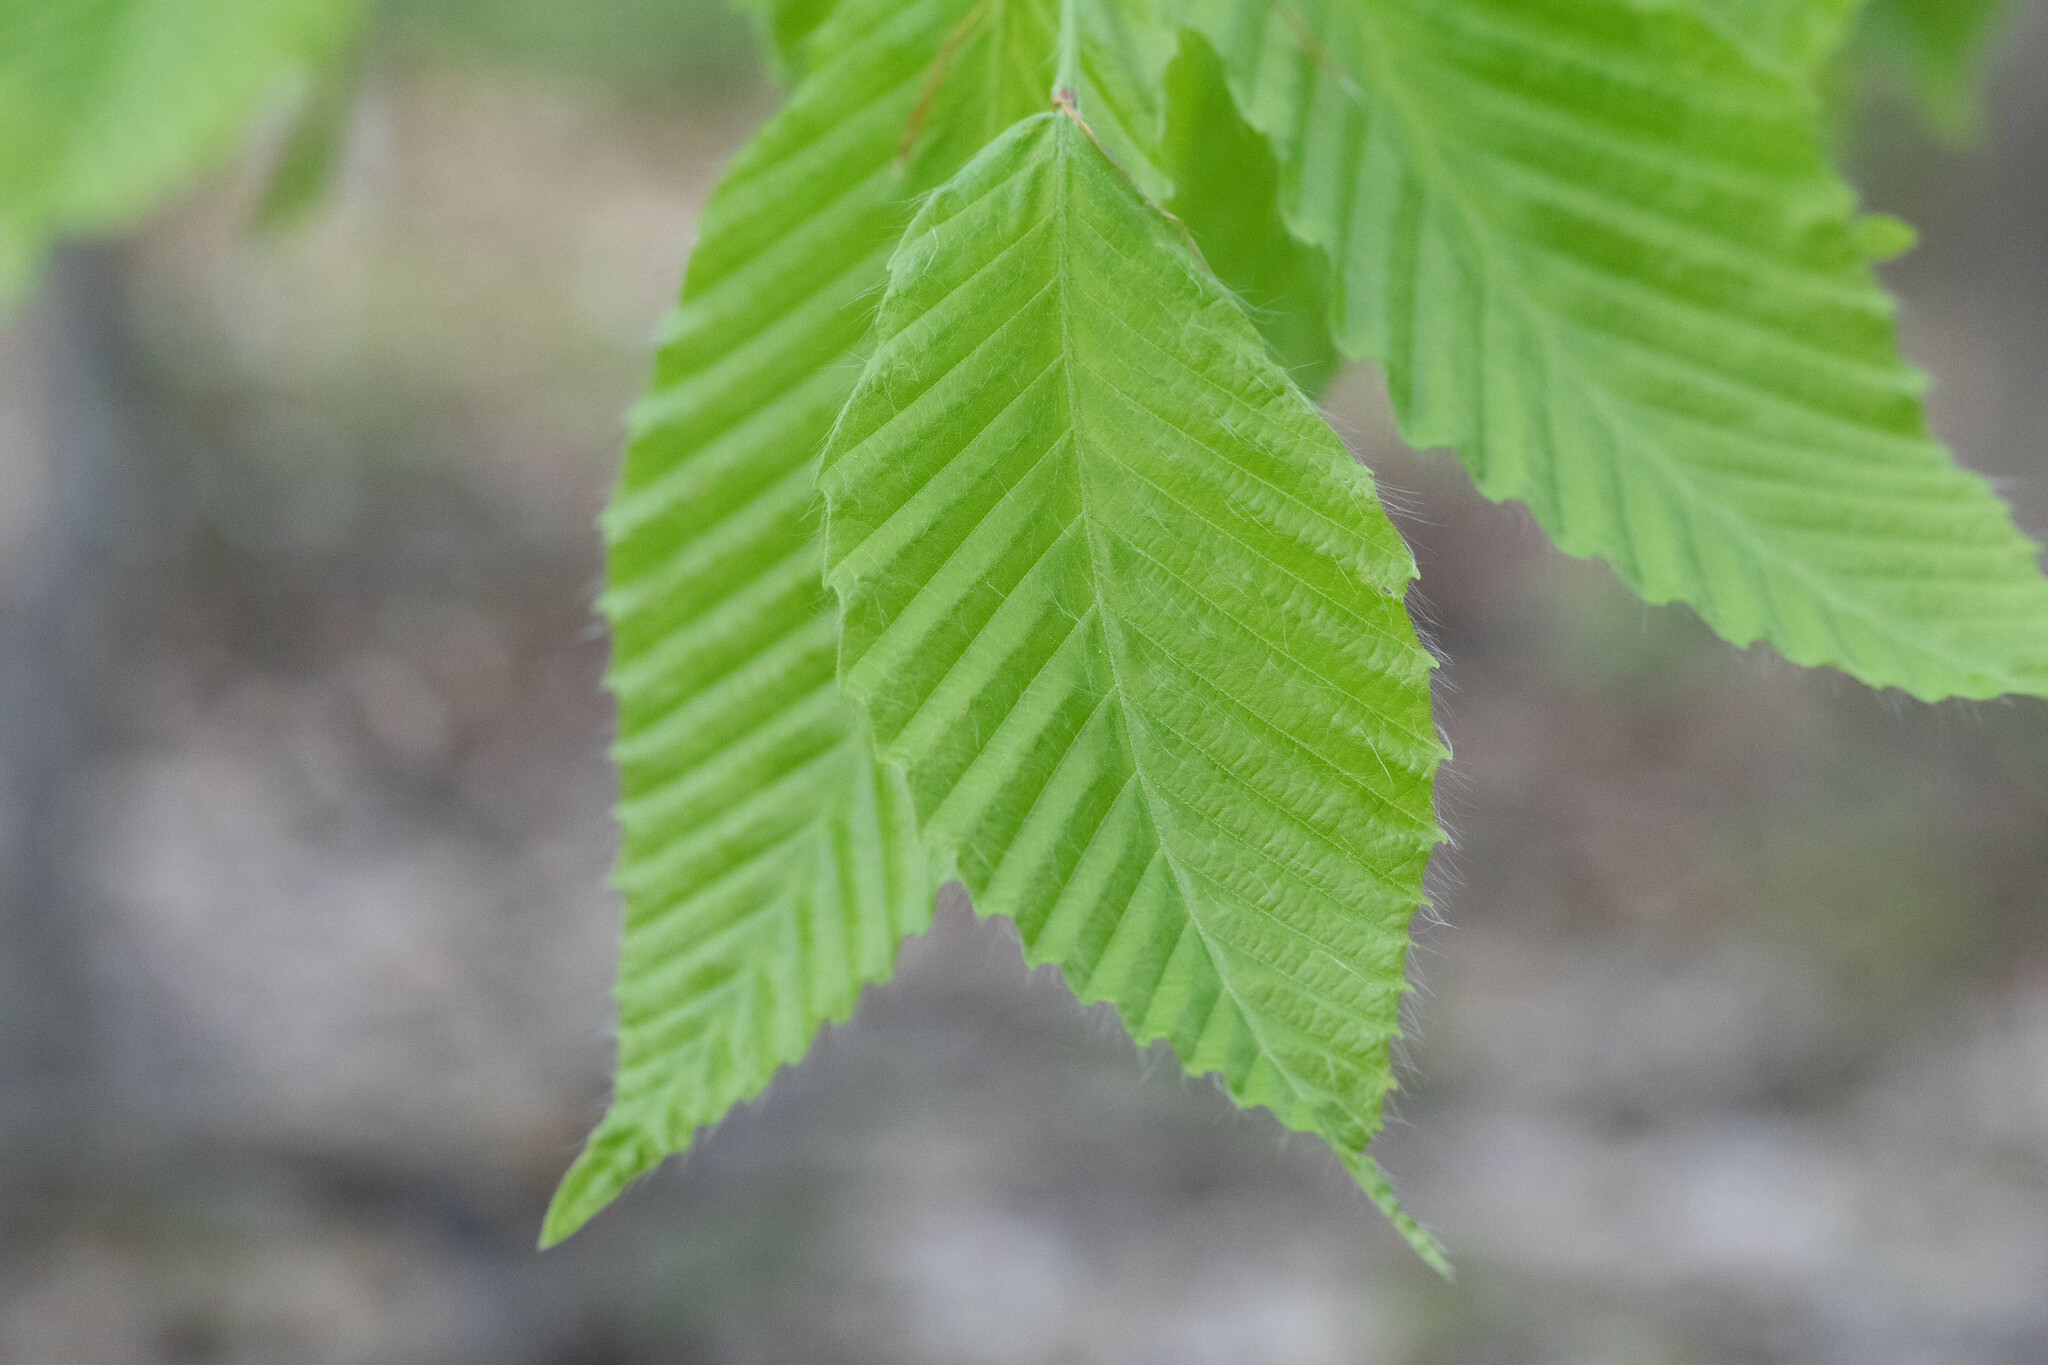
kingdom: Plantae
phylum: Tracheophyta
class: Magnoliopsida
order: Fagales
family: Fagaceae
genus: Fagus
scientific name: Fagus grandifolia
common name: American beech
